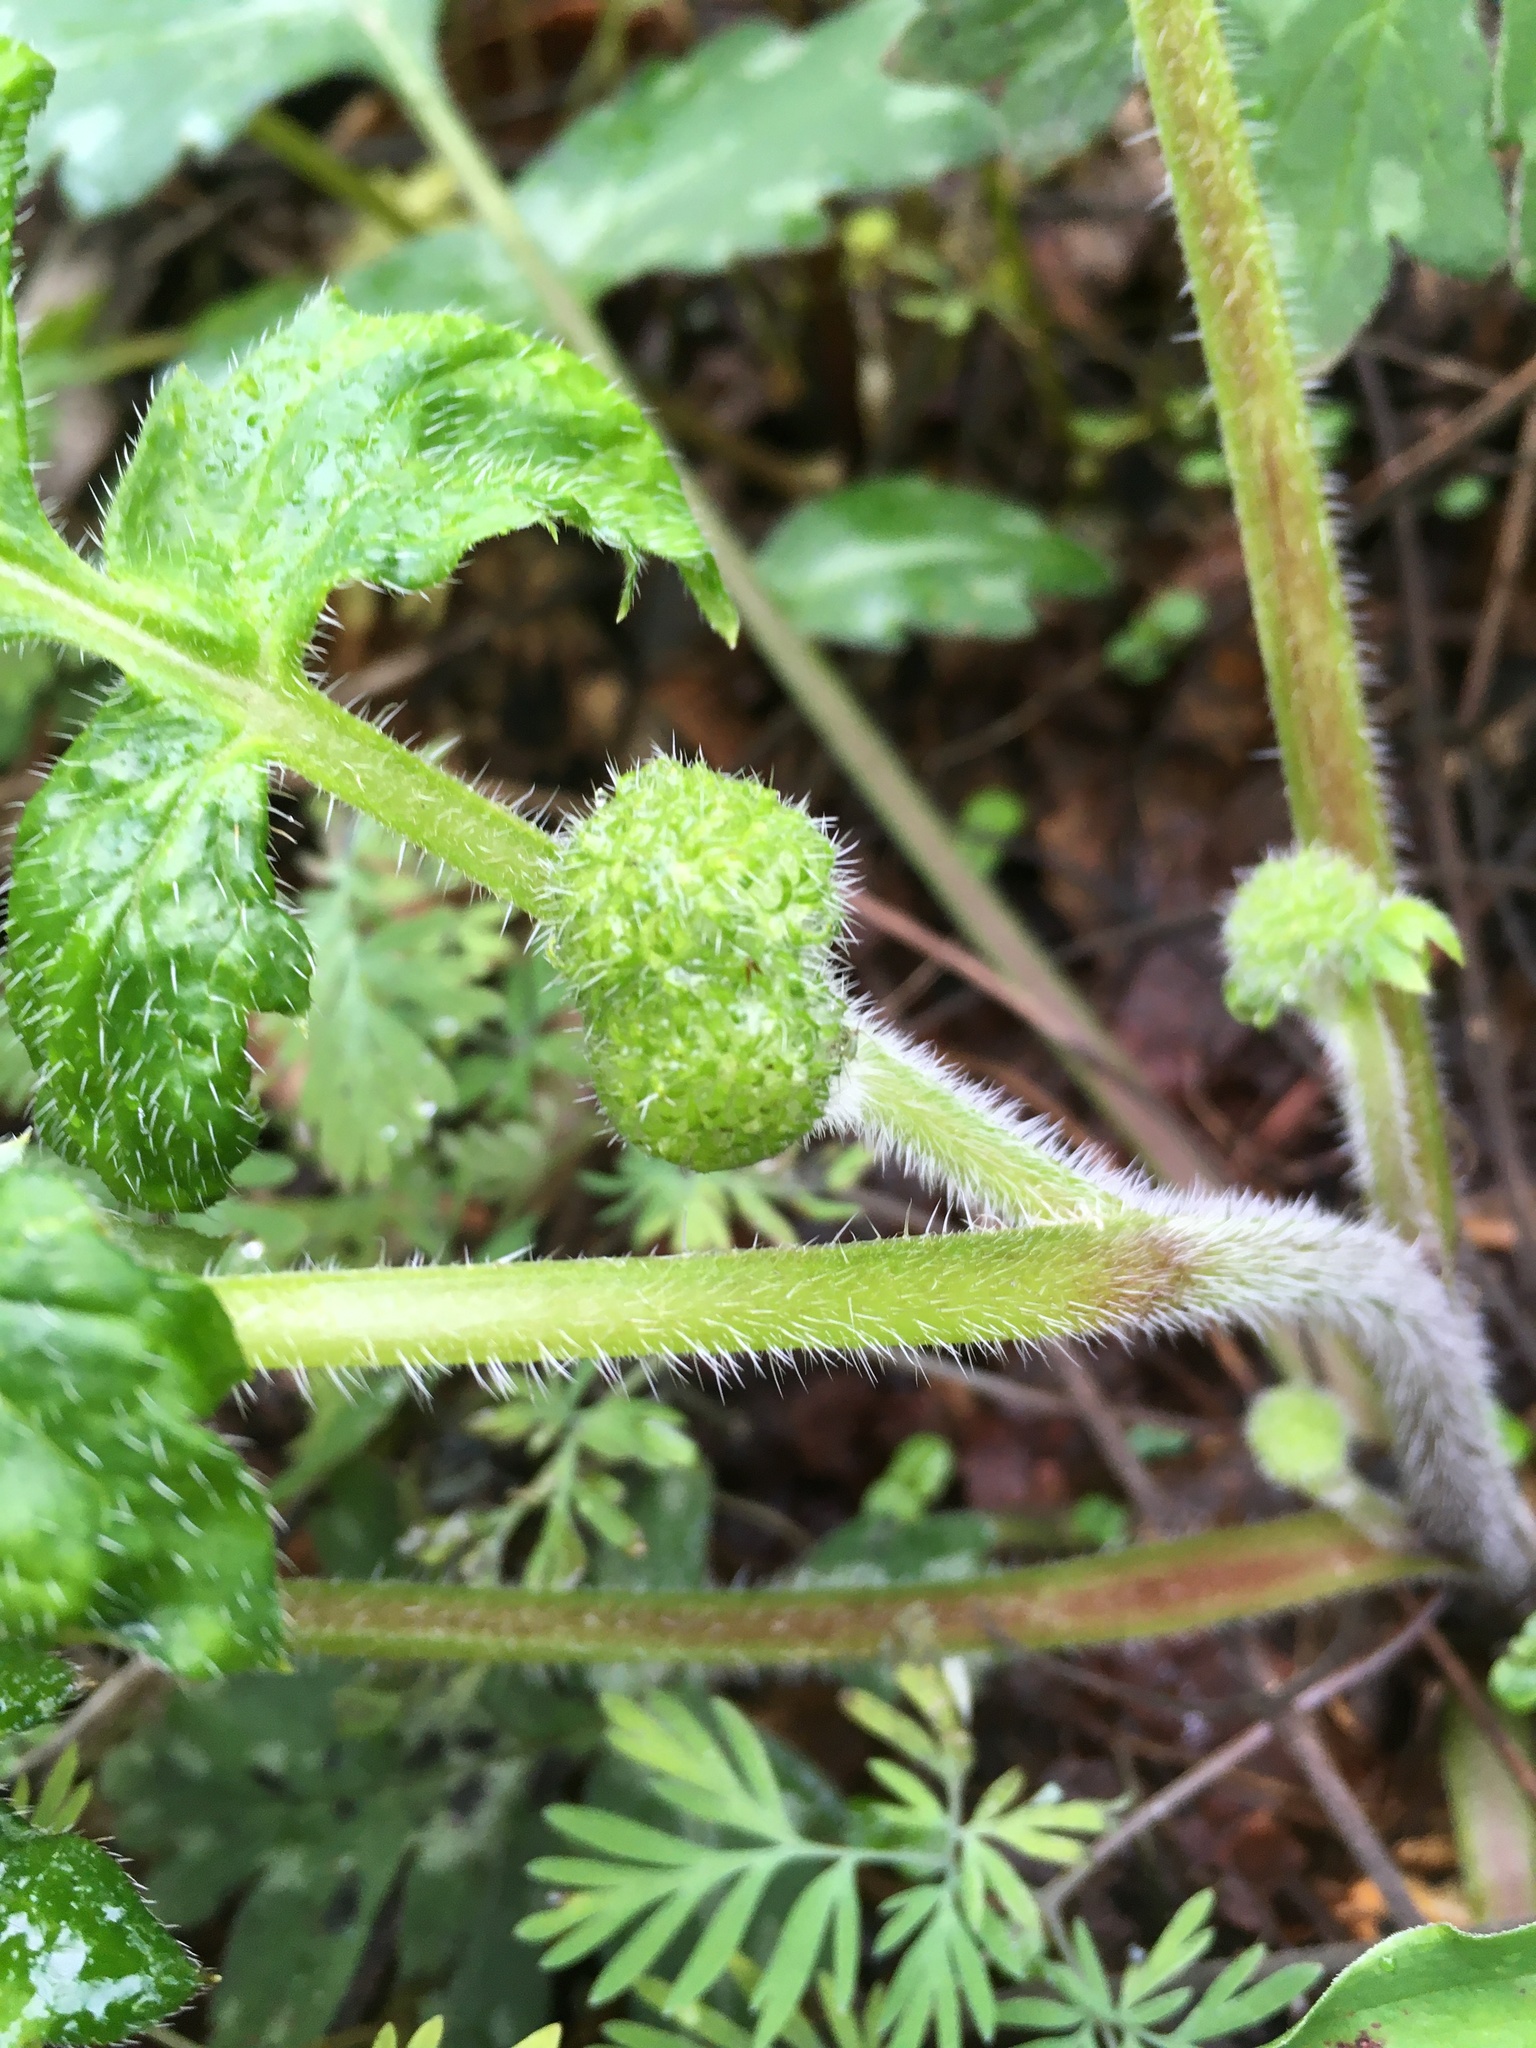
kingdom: Plantae
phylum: Tracheophyta
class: Magnoliopsida
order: Boraginales
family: Hydrophyllaceae
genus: Hydrophyllum
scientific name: Hydrophyllum macrophyllum
